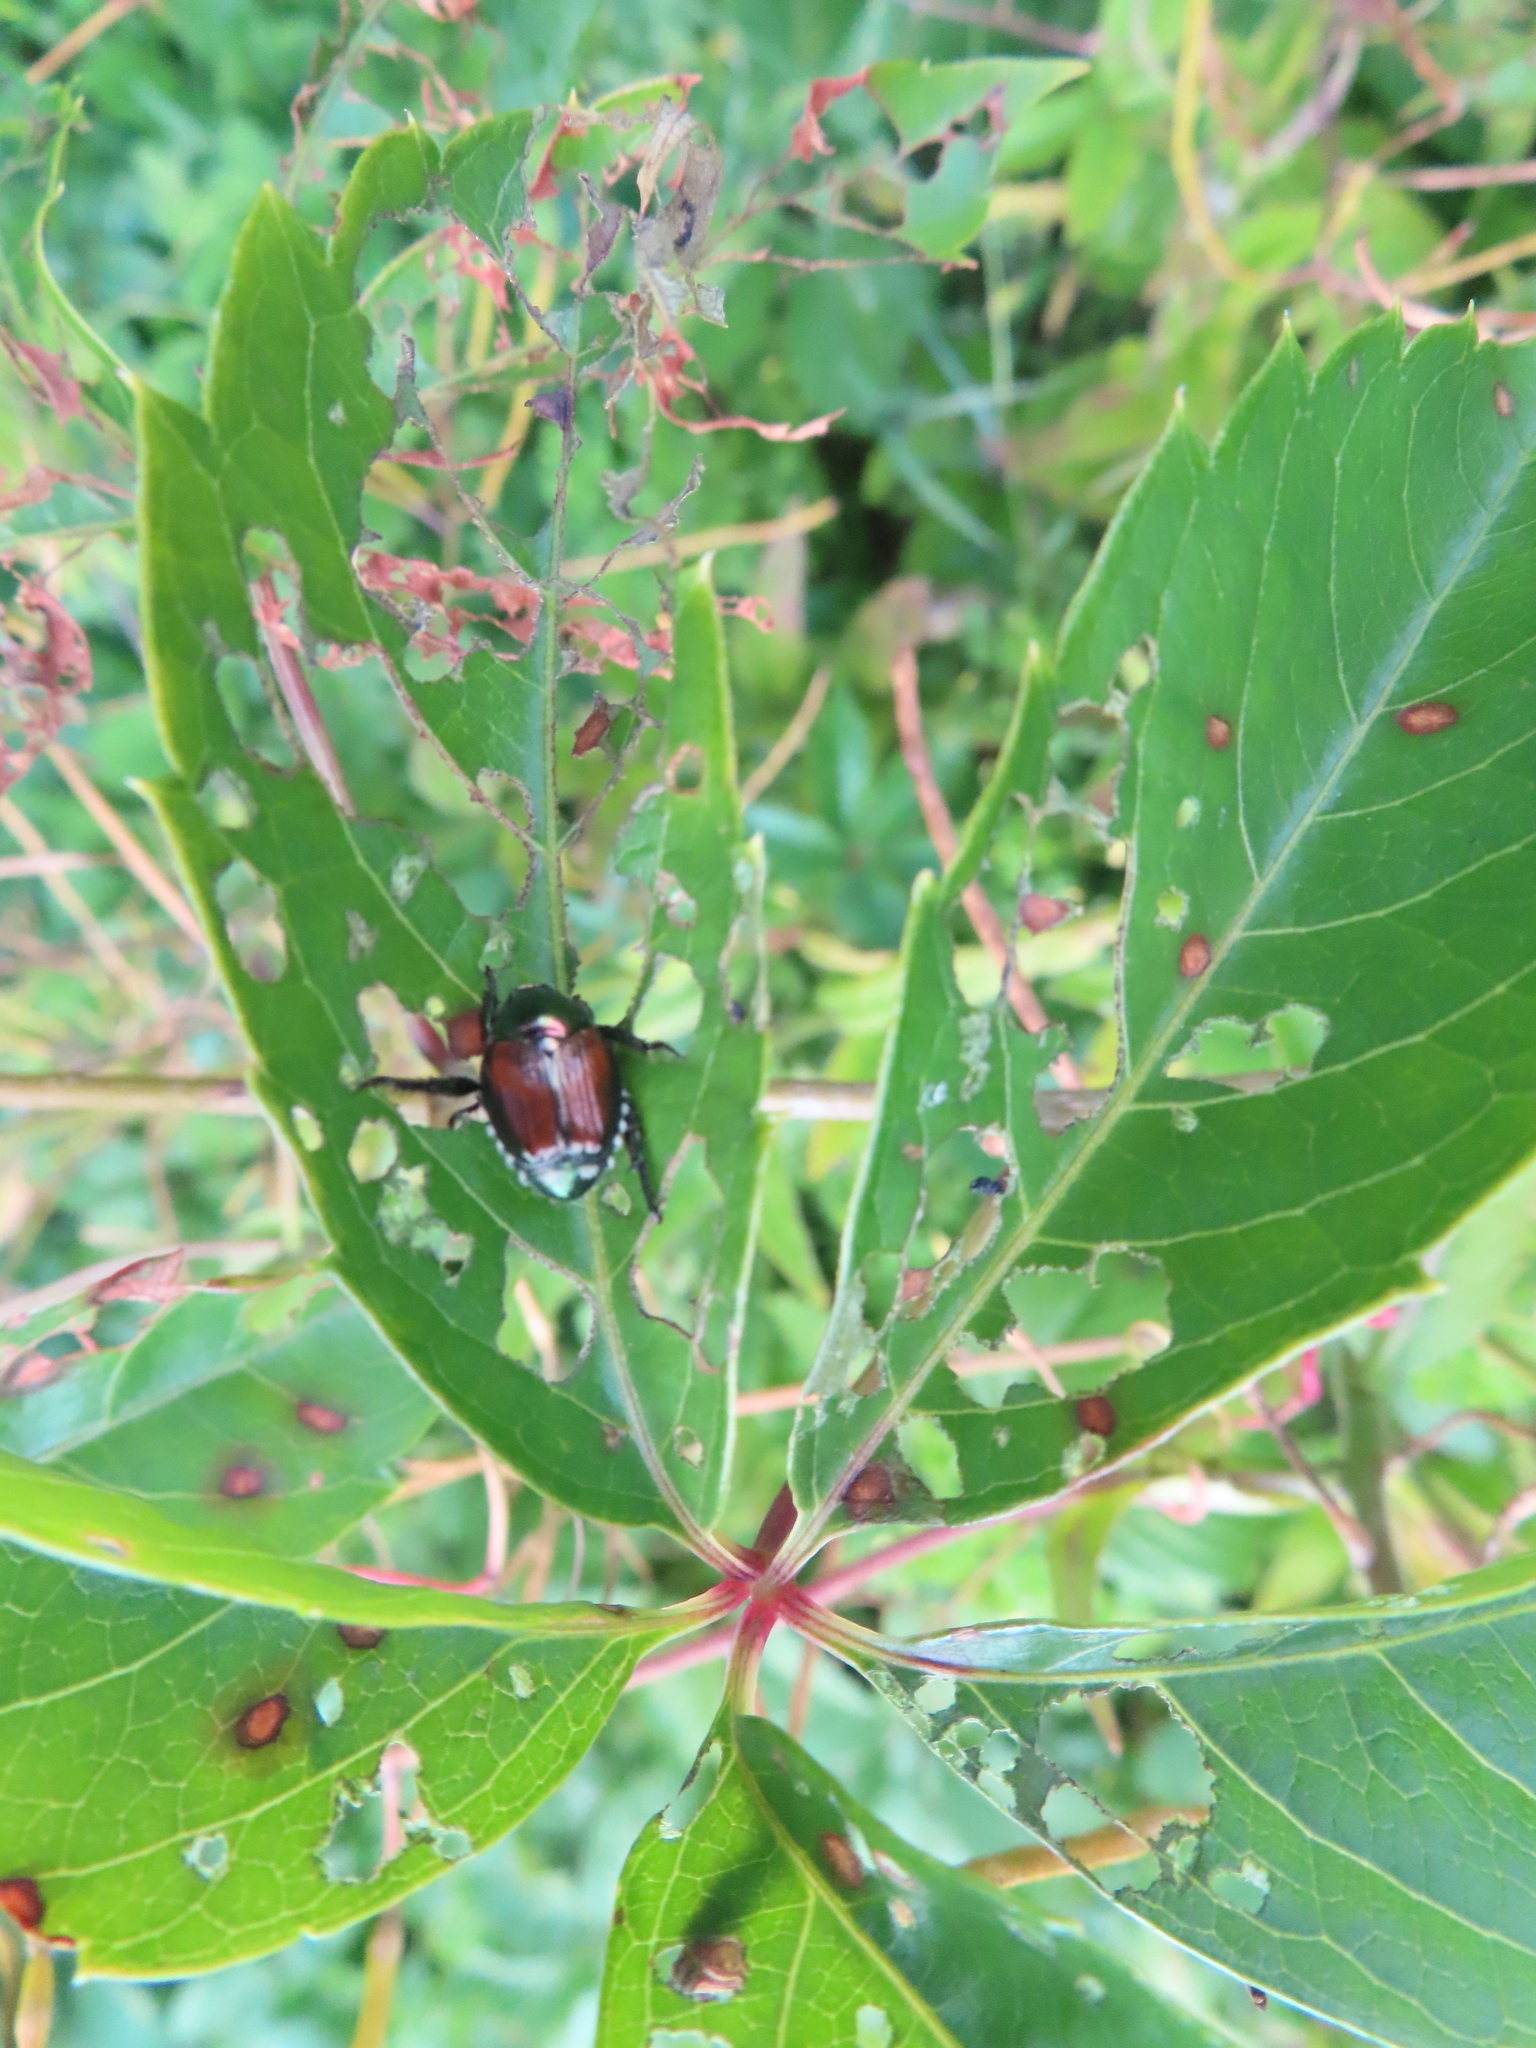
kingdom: Animalia
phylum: Arthropoda
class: Insecta
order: Coleoptera
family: Scarabaeidae
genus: Popillia
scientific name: Popillia japonica
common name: Japanese beetle
